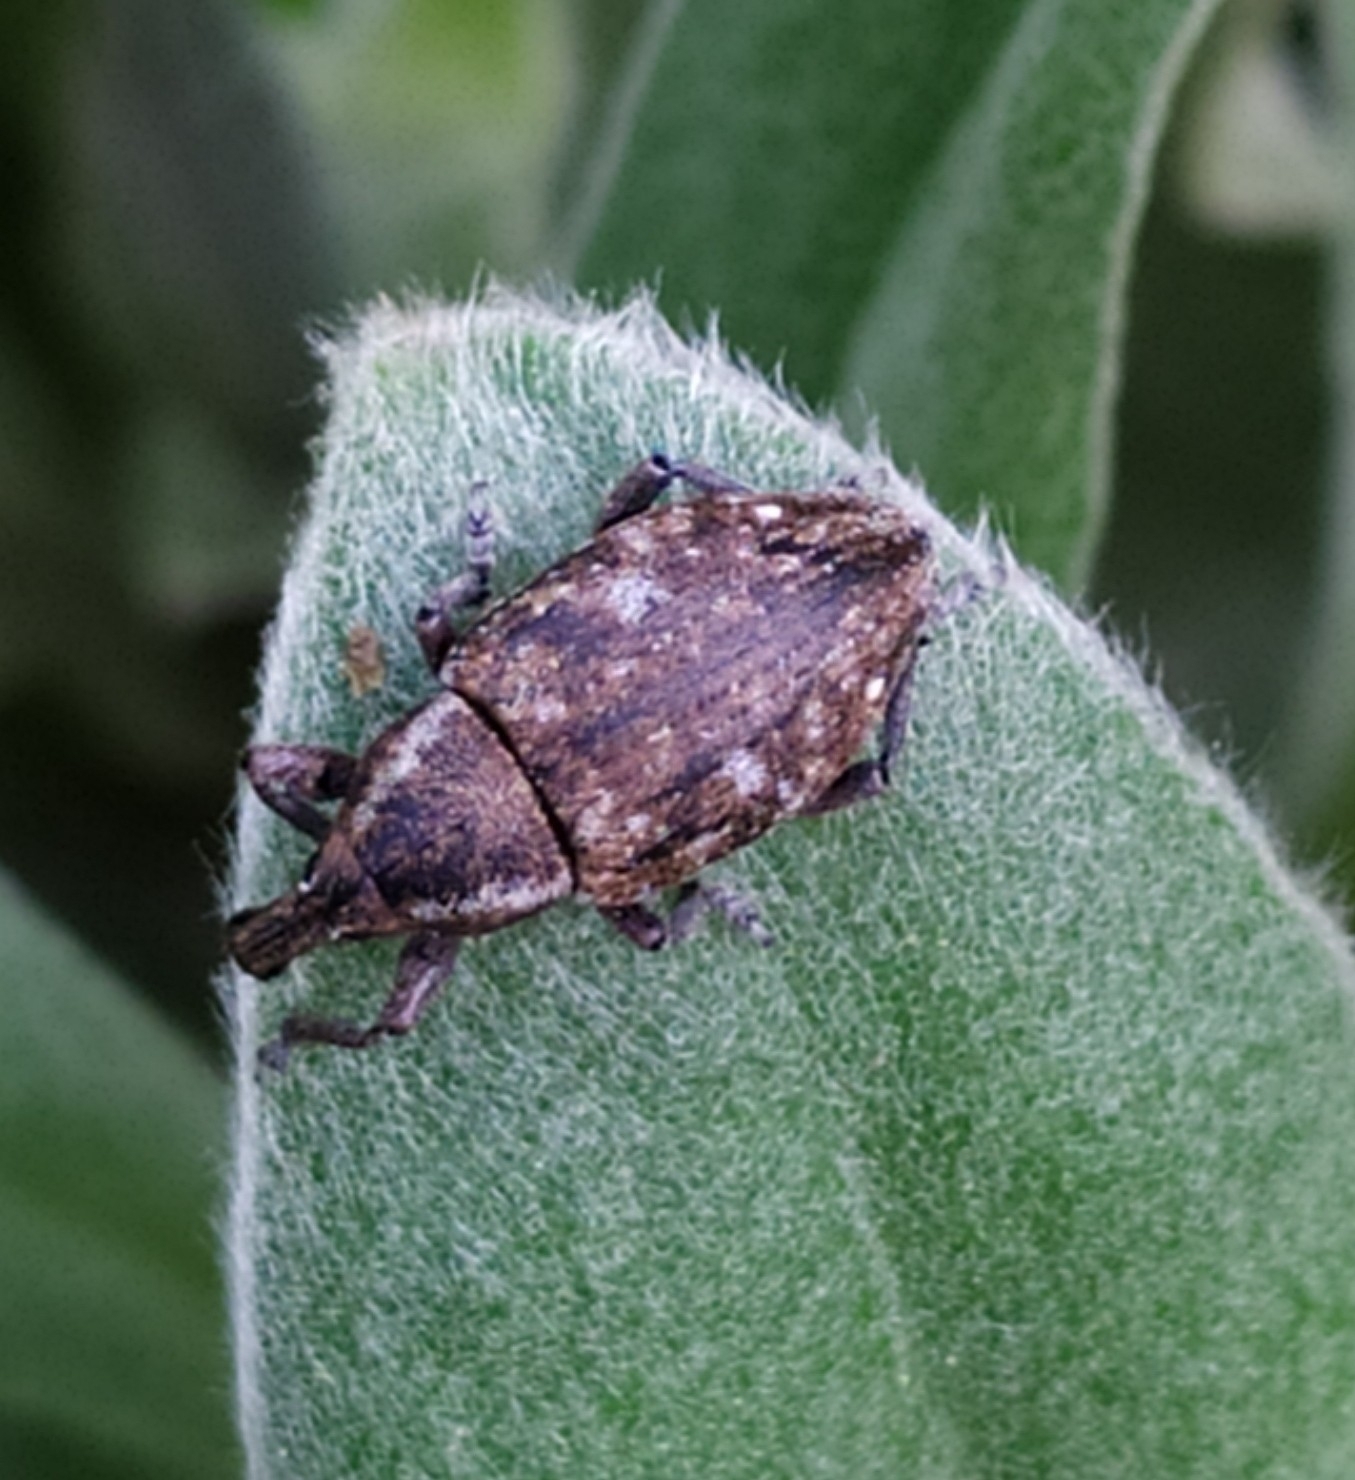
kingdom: Animalia
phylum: Arthropoda
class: Insecta
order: Coleoptera
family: Curculionidae
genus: Lepyrus
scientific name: Lepyrus capucinus
